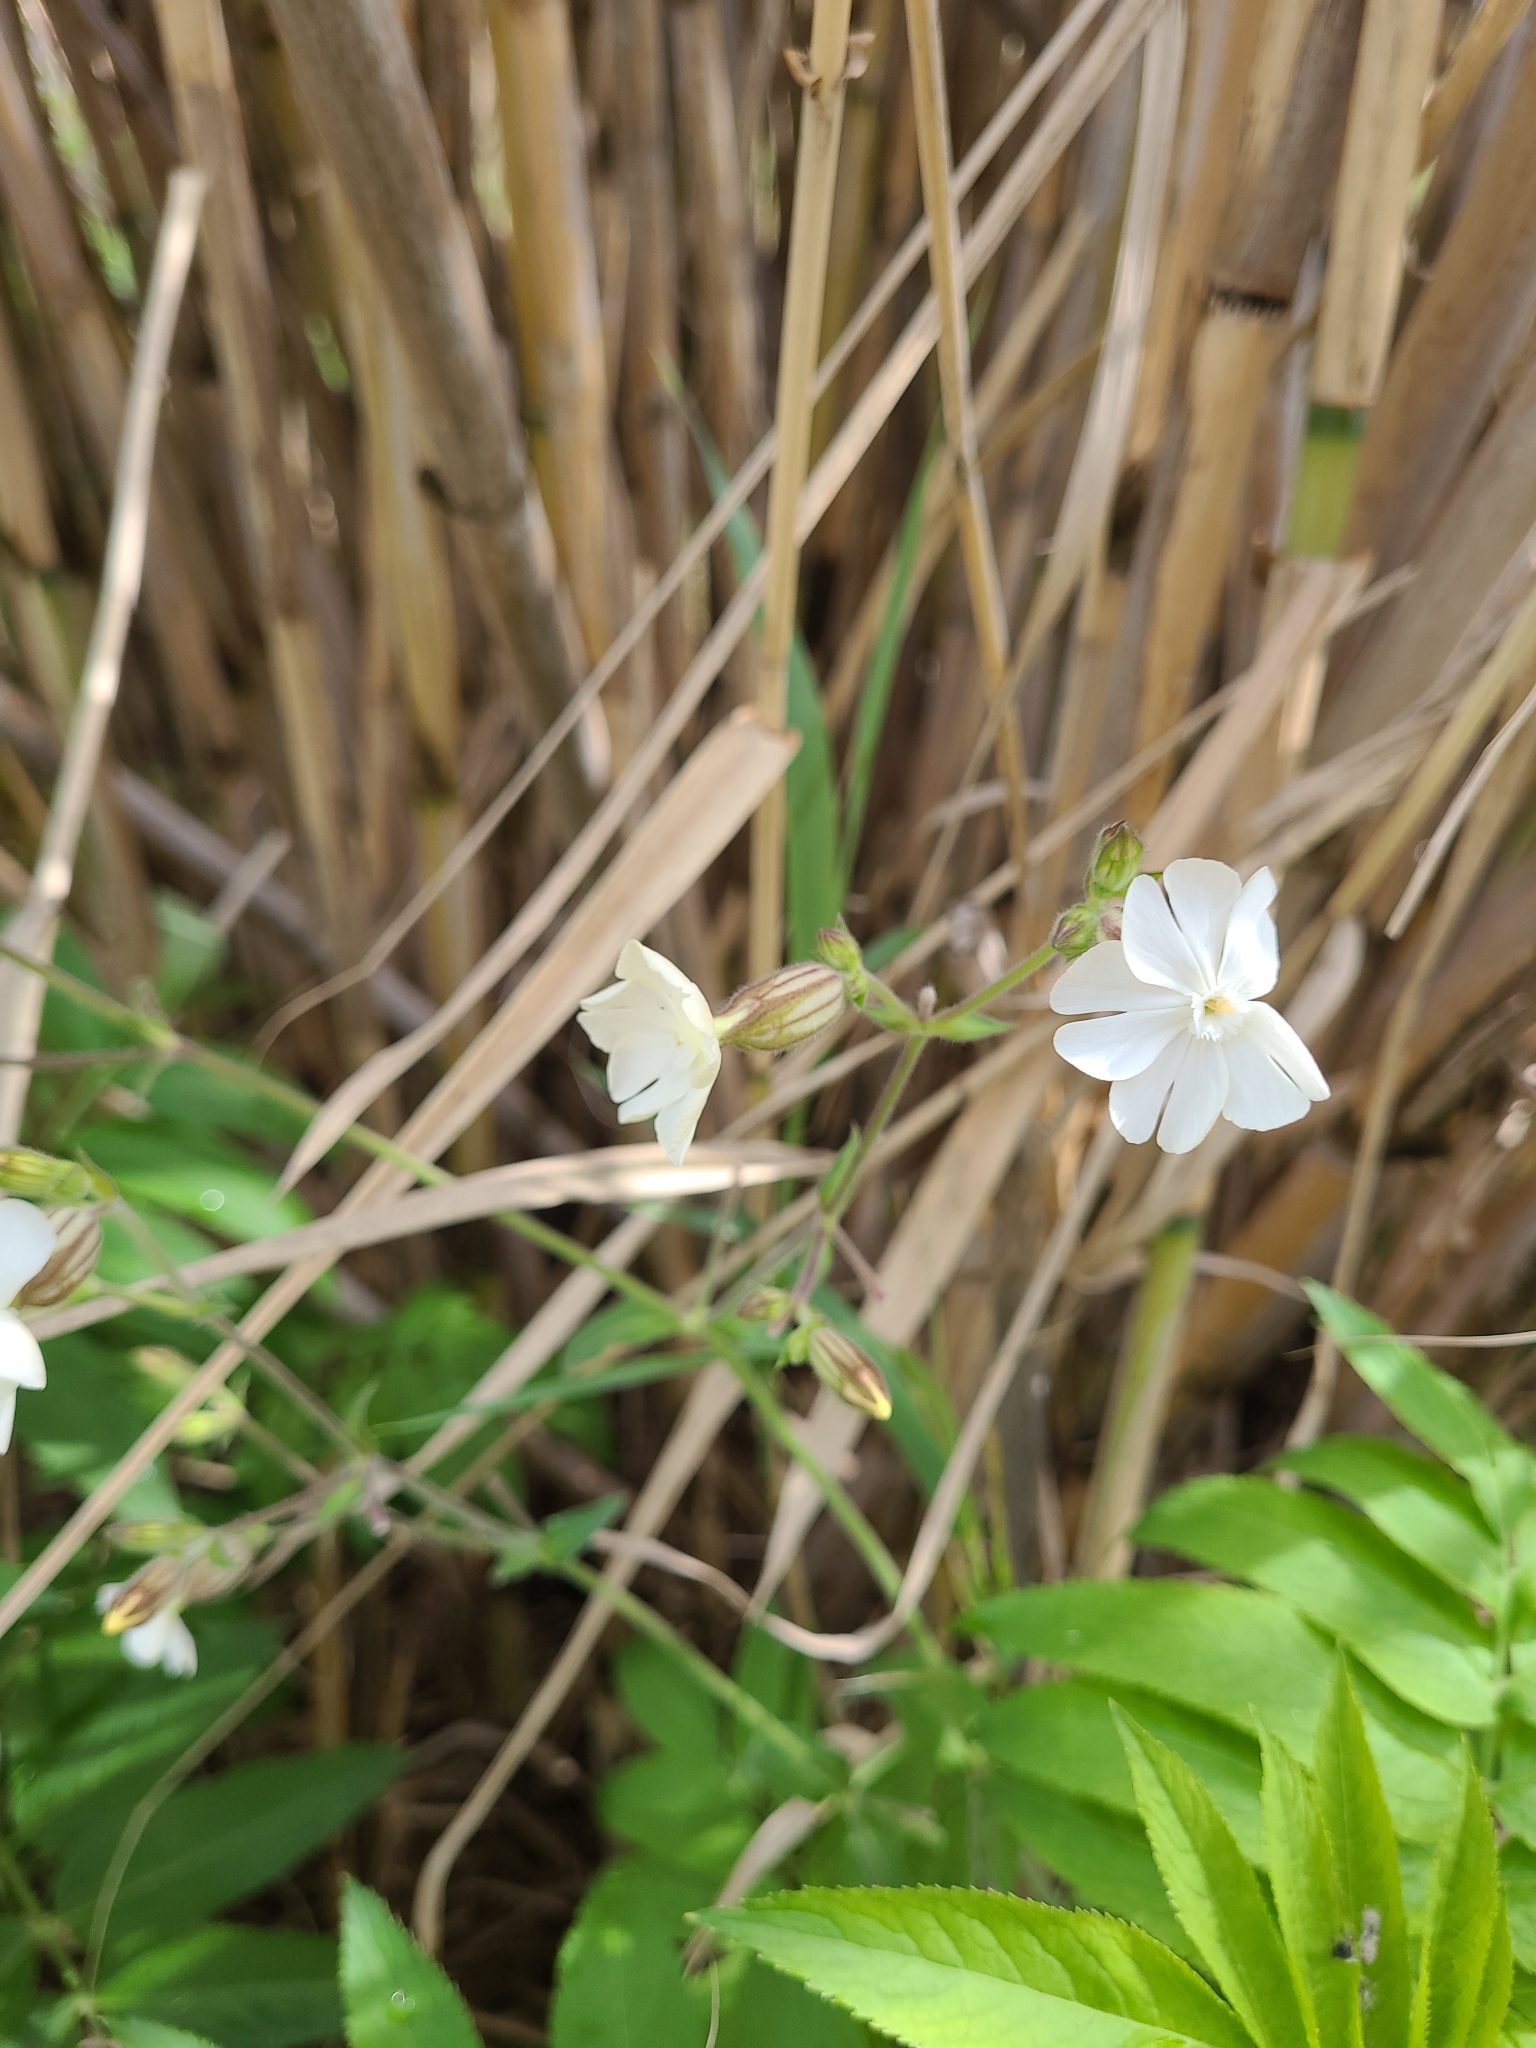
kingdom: Plantae
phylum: Tracheophyta
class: Magnoliopsida
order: Caryophyllales
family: Caryophyllaceae
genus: Silene
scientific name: Silene latifolia
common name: White campion
